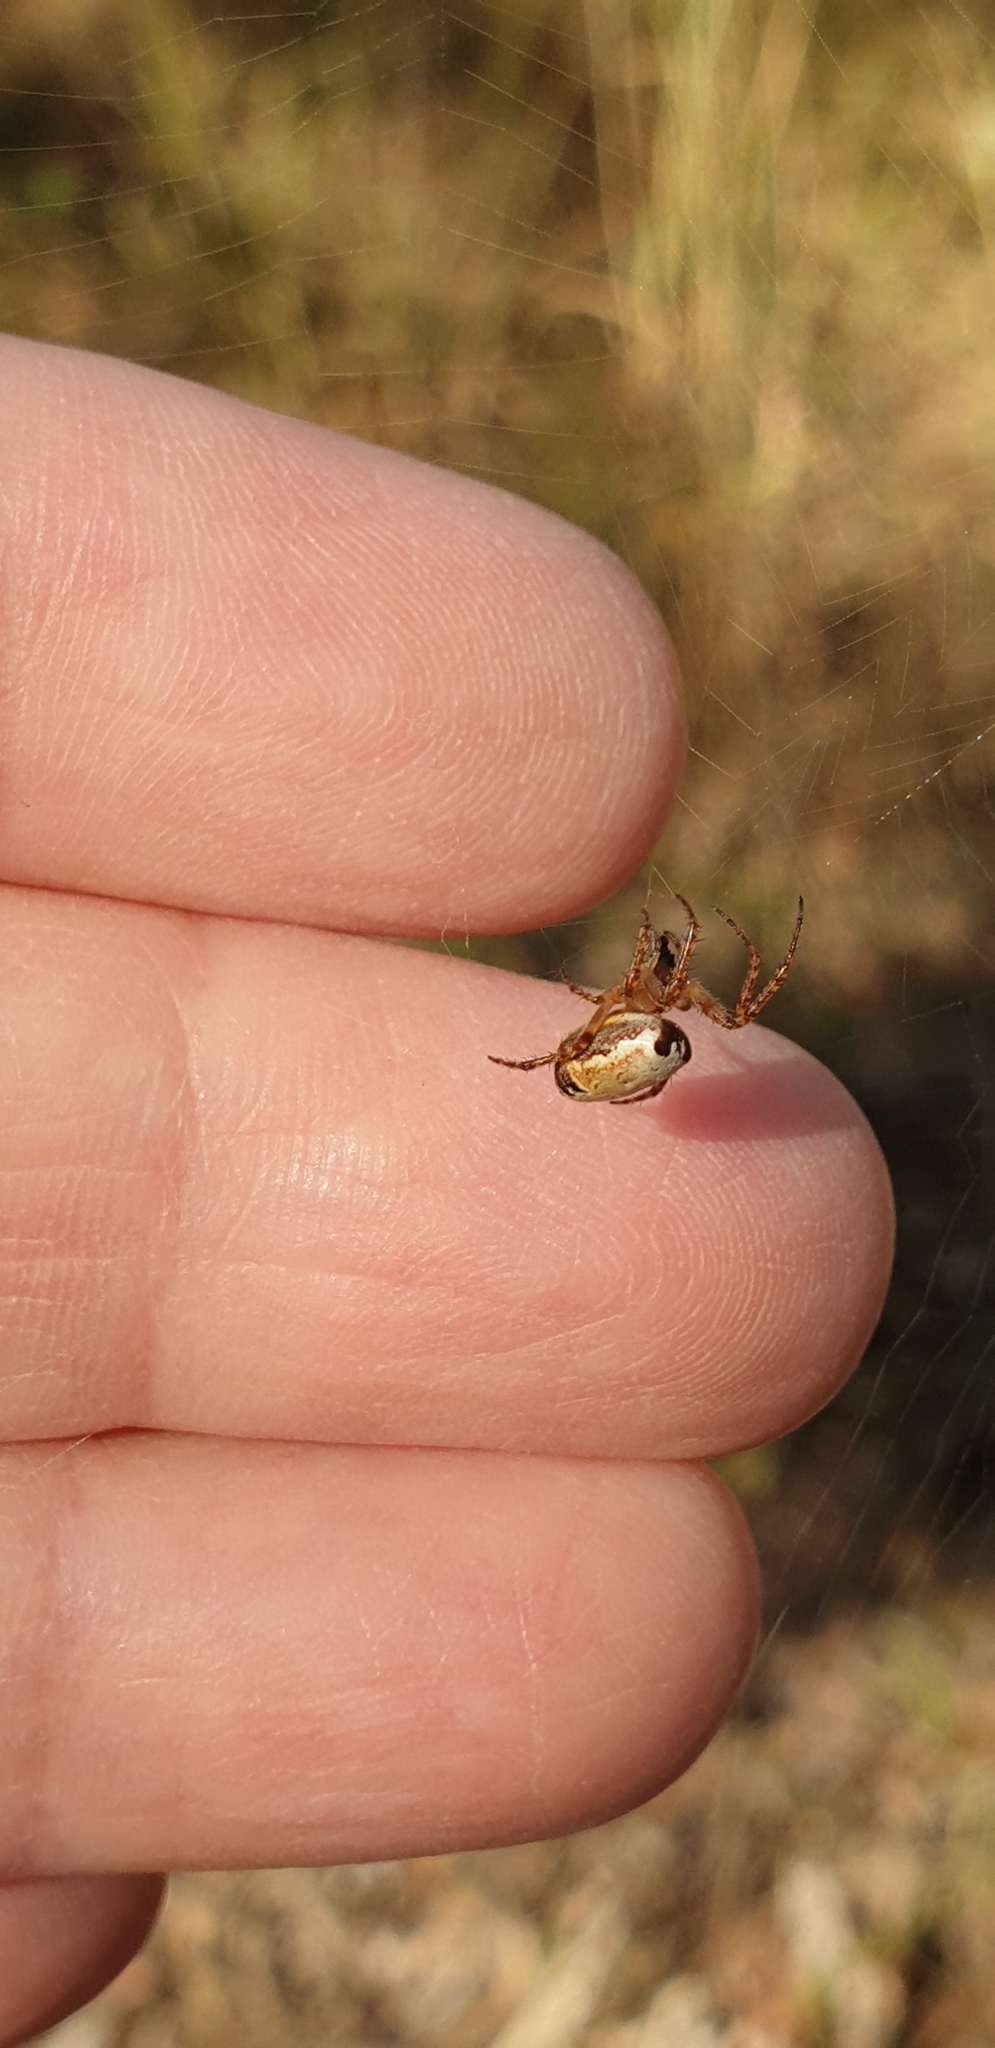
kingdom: Animalia
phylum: Arthropoda
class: Arachnida
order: Araneae
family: Araneidae
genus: Plebs
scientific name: Plebs eburnus
